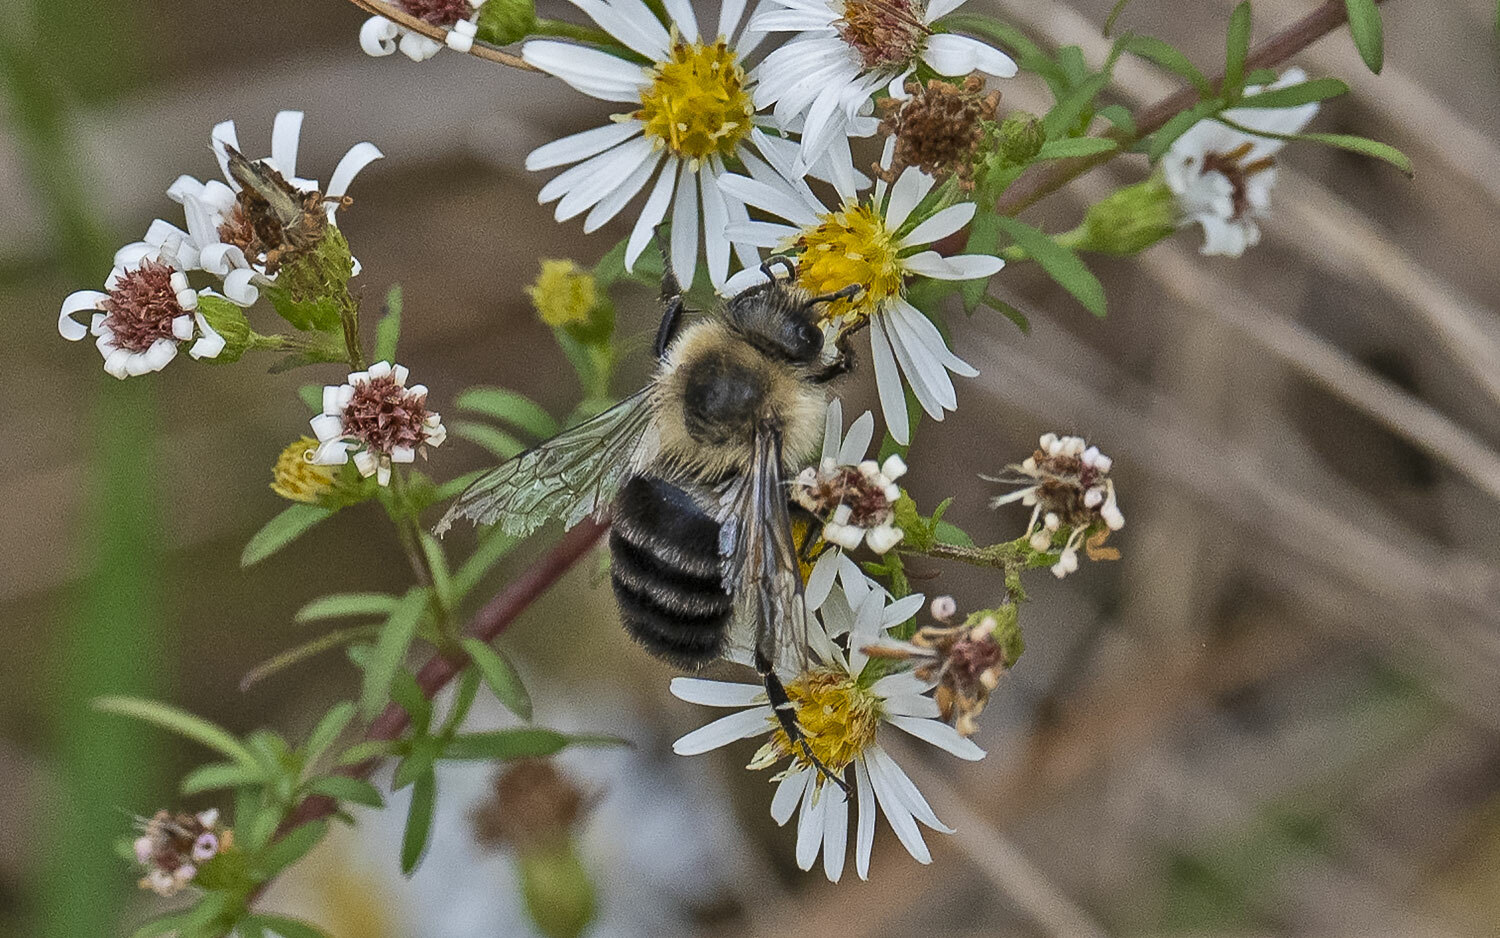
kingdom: Animalia
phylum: Arthropoda
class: Insecta
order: Hymenoptera
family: Apidae
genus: Bombus
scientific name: Bombus impatiens
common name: Common eastern bumble bee
